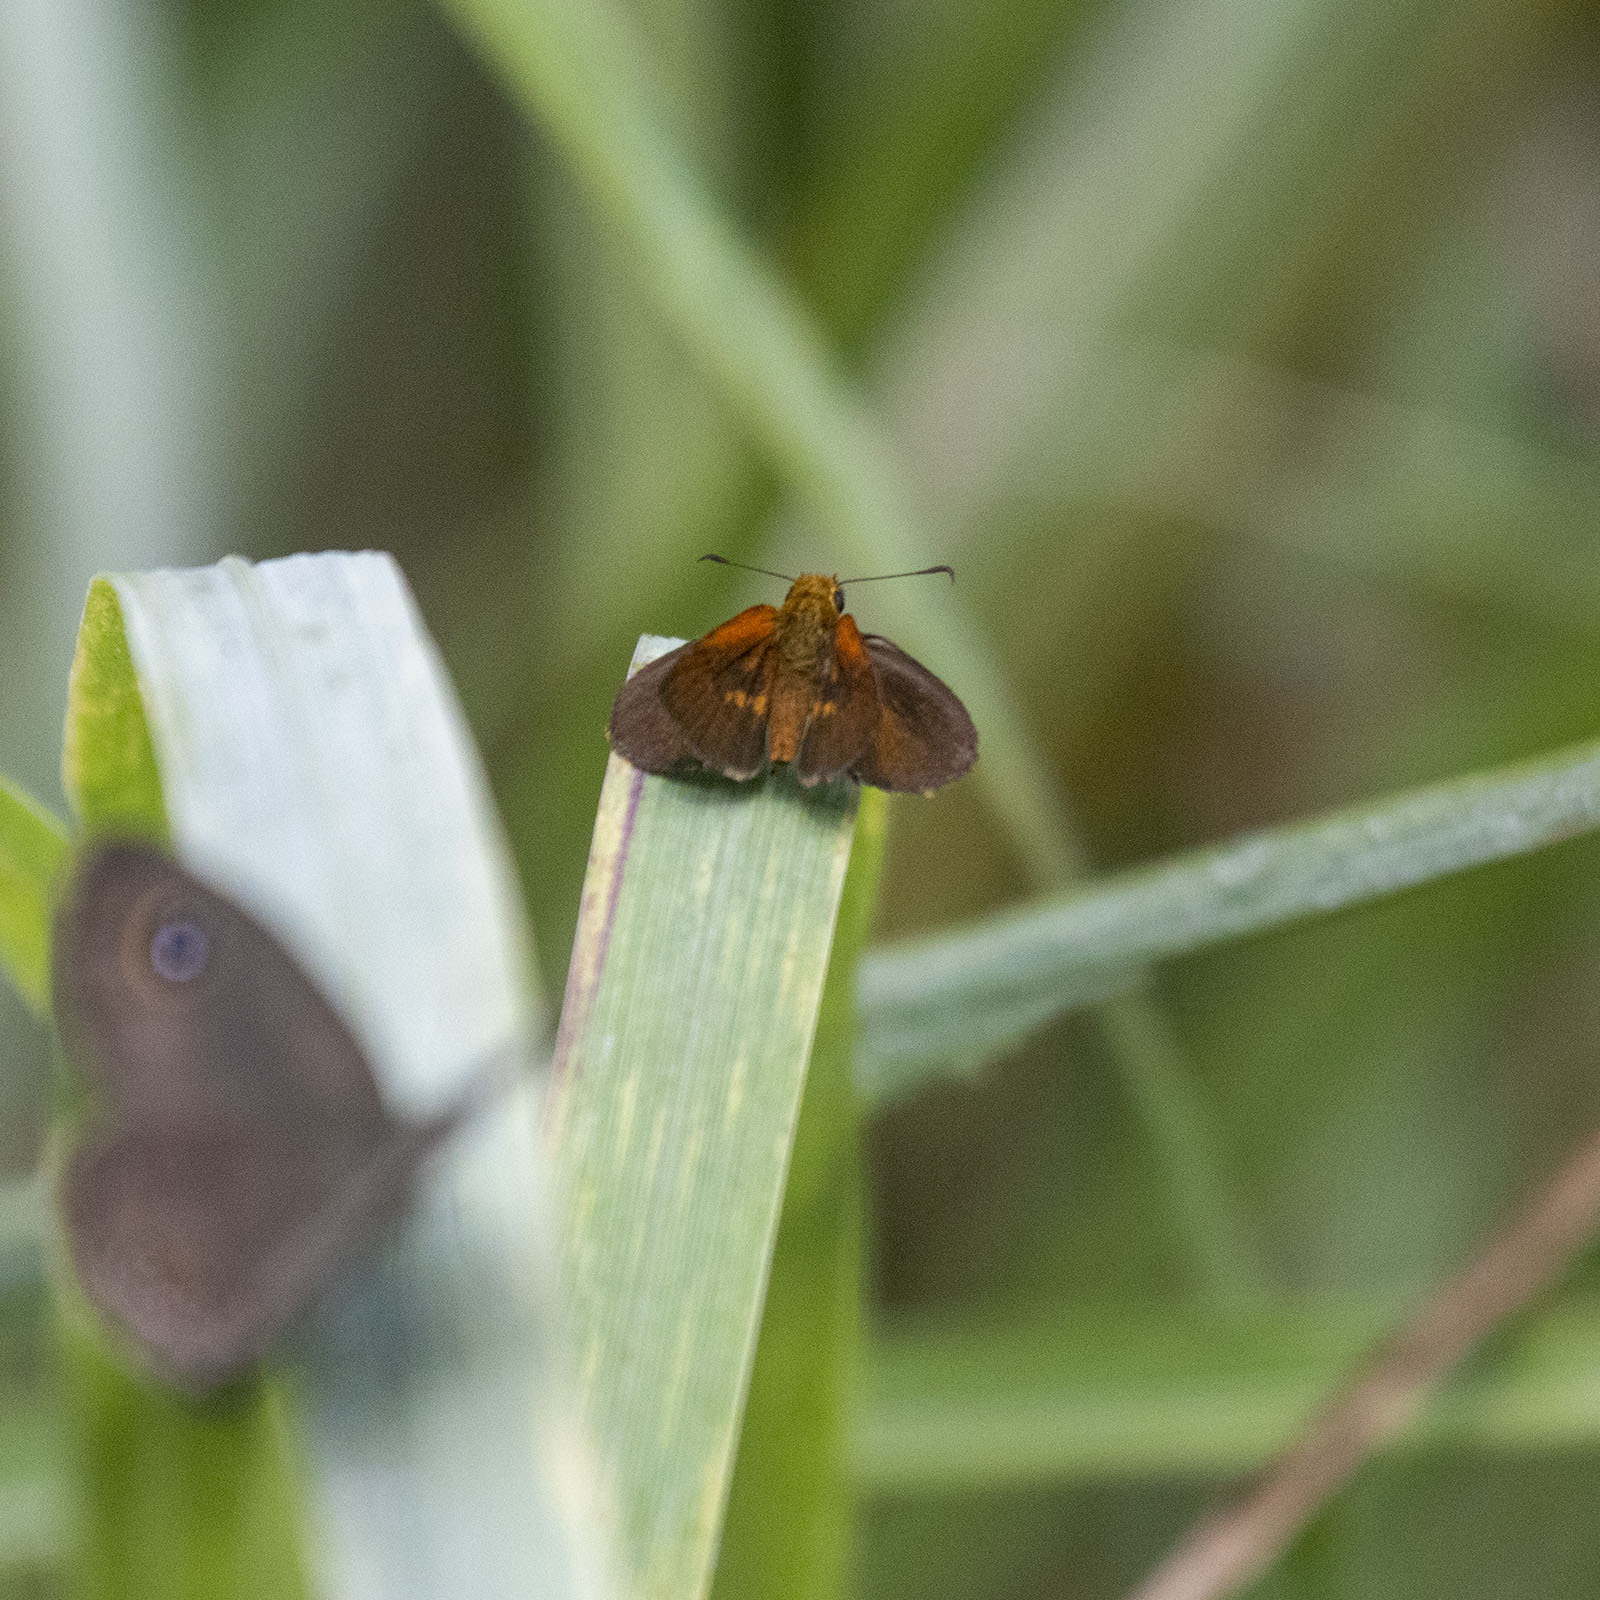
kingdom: Animalia
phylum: Arthropoda
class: Insecta
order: Lepidoptera
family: Hesperiidae
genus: Iambrix
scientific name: Iambrix salsala
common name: Chestnut bob
